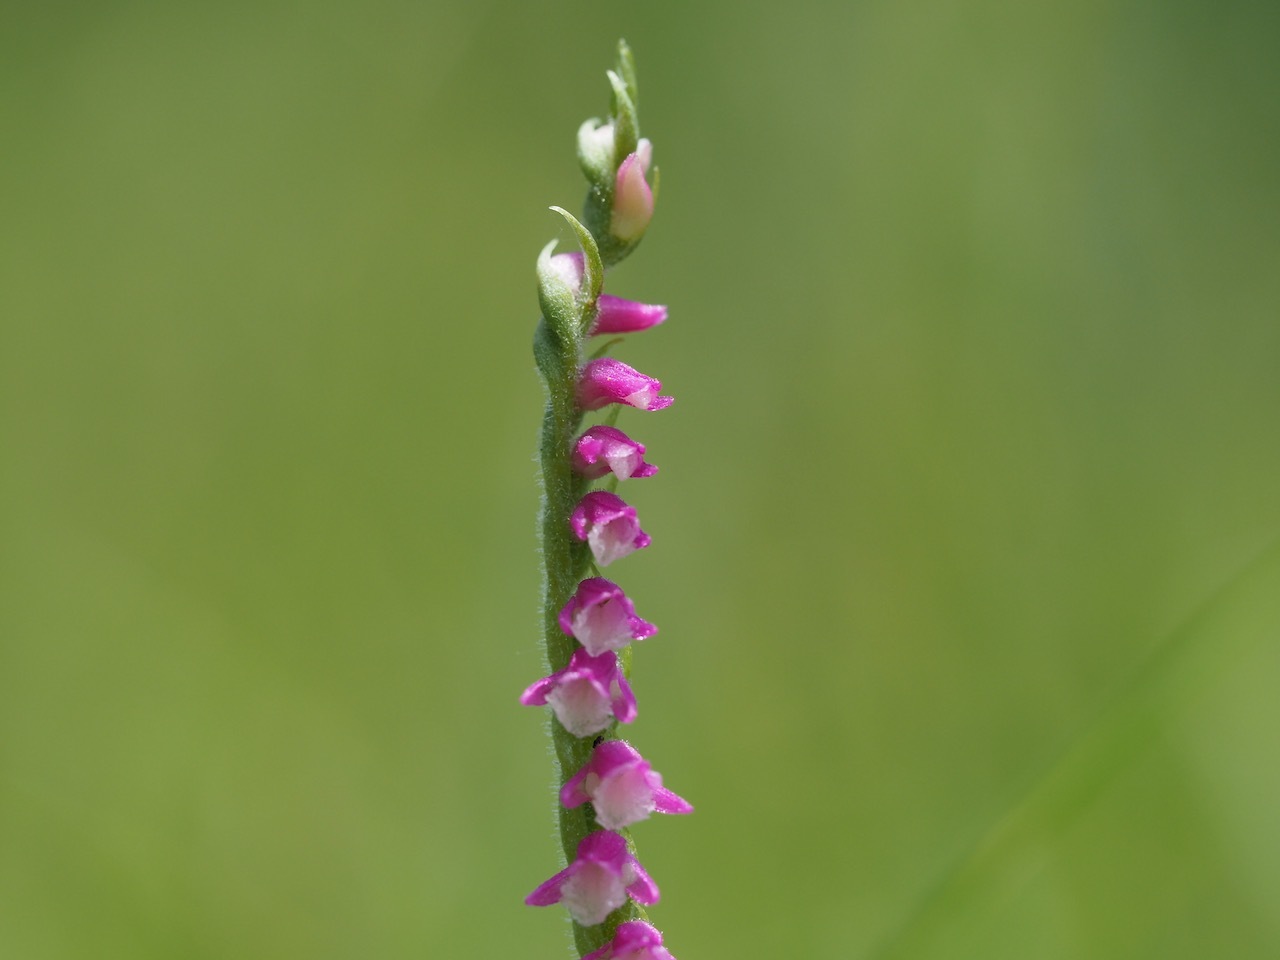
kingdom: Plantae
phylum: Tracheophyta
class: Liliopsida
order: Asparagales
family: Orchidaceae
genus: Spiranthes
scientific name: Spiranthes australis
